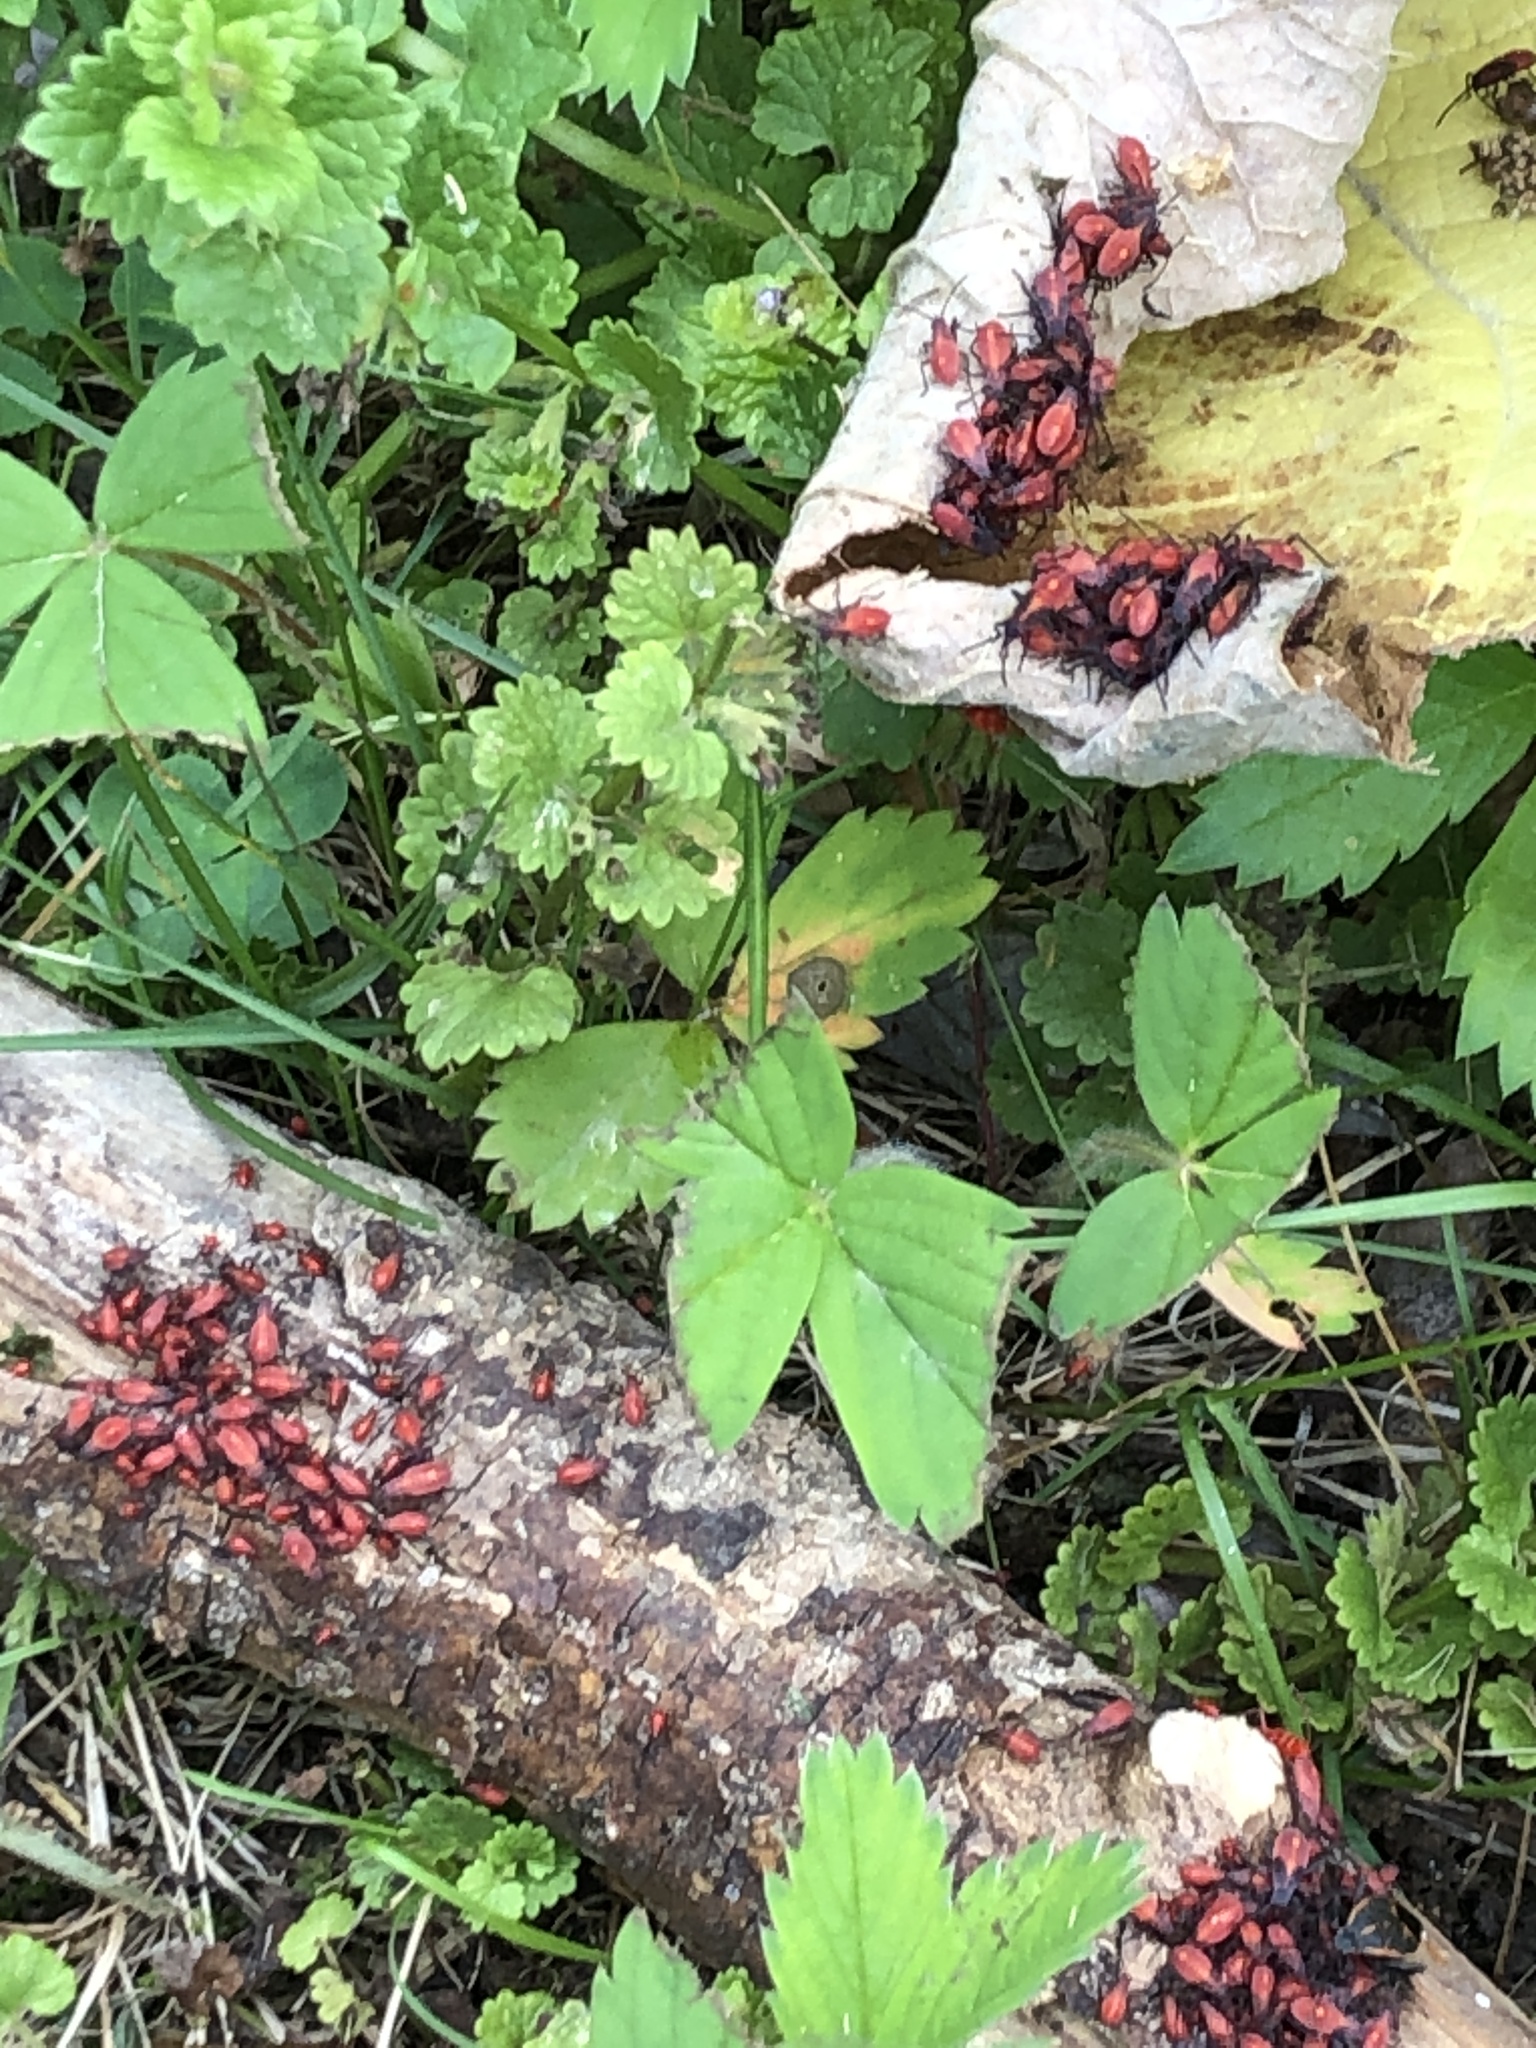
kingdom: Animalia
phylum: Arthropoda
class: Insecta
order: Hemiptera
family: Rhopalidae
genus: Boisea
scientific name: Boisea trivittata
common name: Boxelder bug
